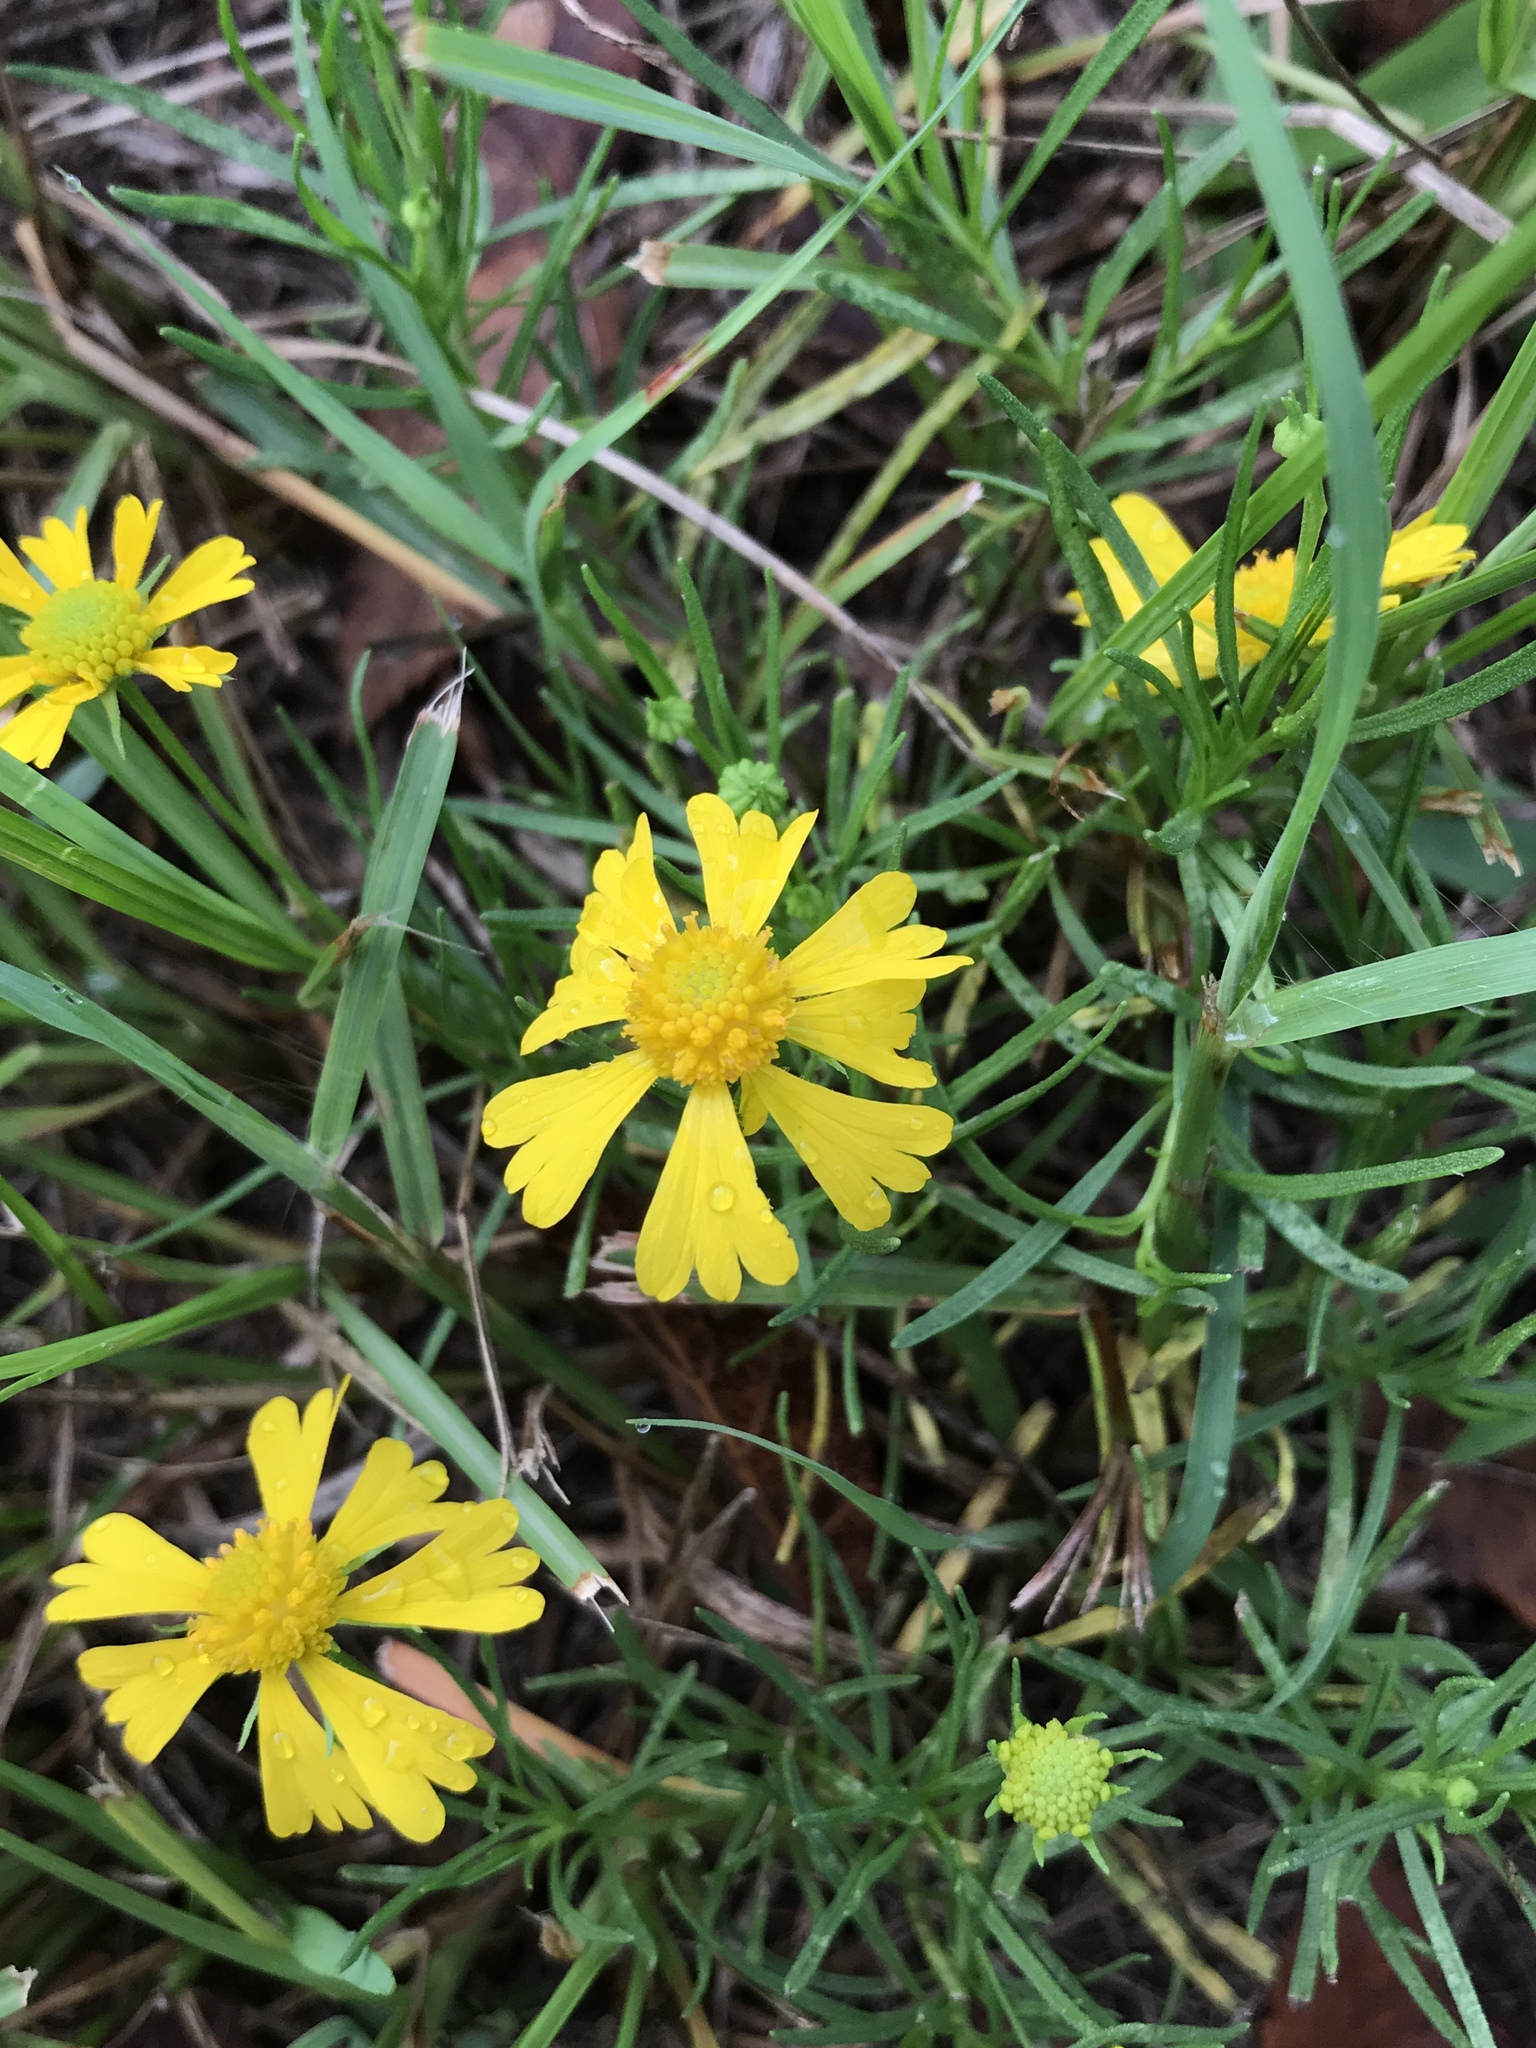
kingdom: Plantae
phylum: Tracheophyta
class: Magnoliopsida
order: Asterales
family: Asteraceae
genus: Helenium
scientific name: Helenium amarum
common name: Bitter sneezeweed
